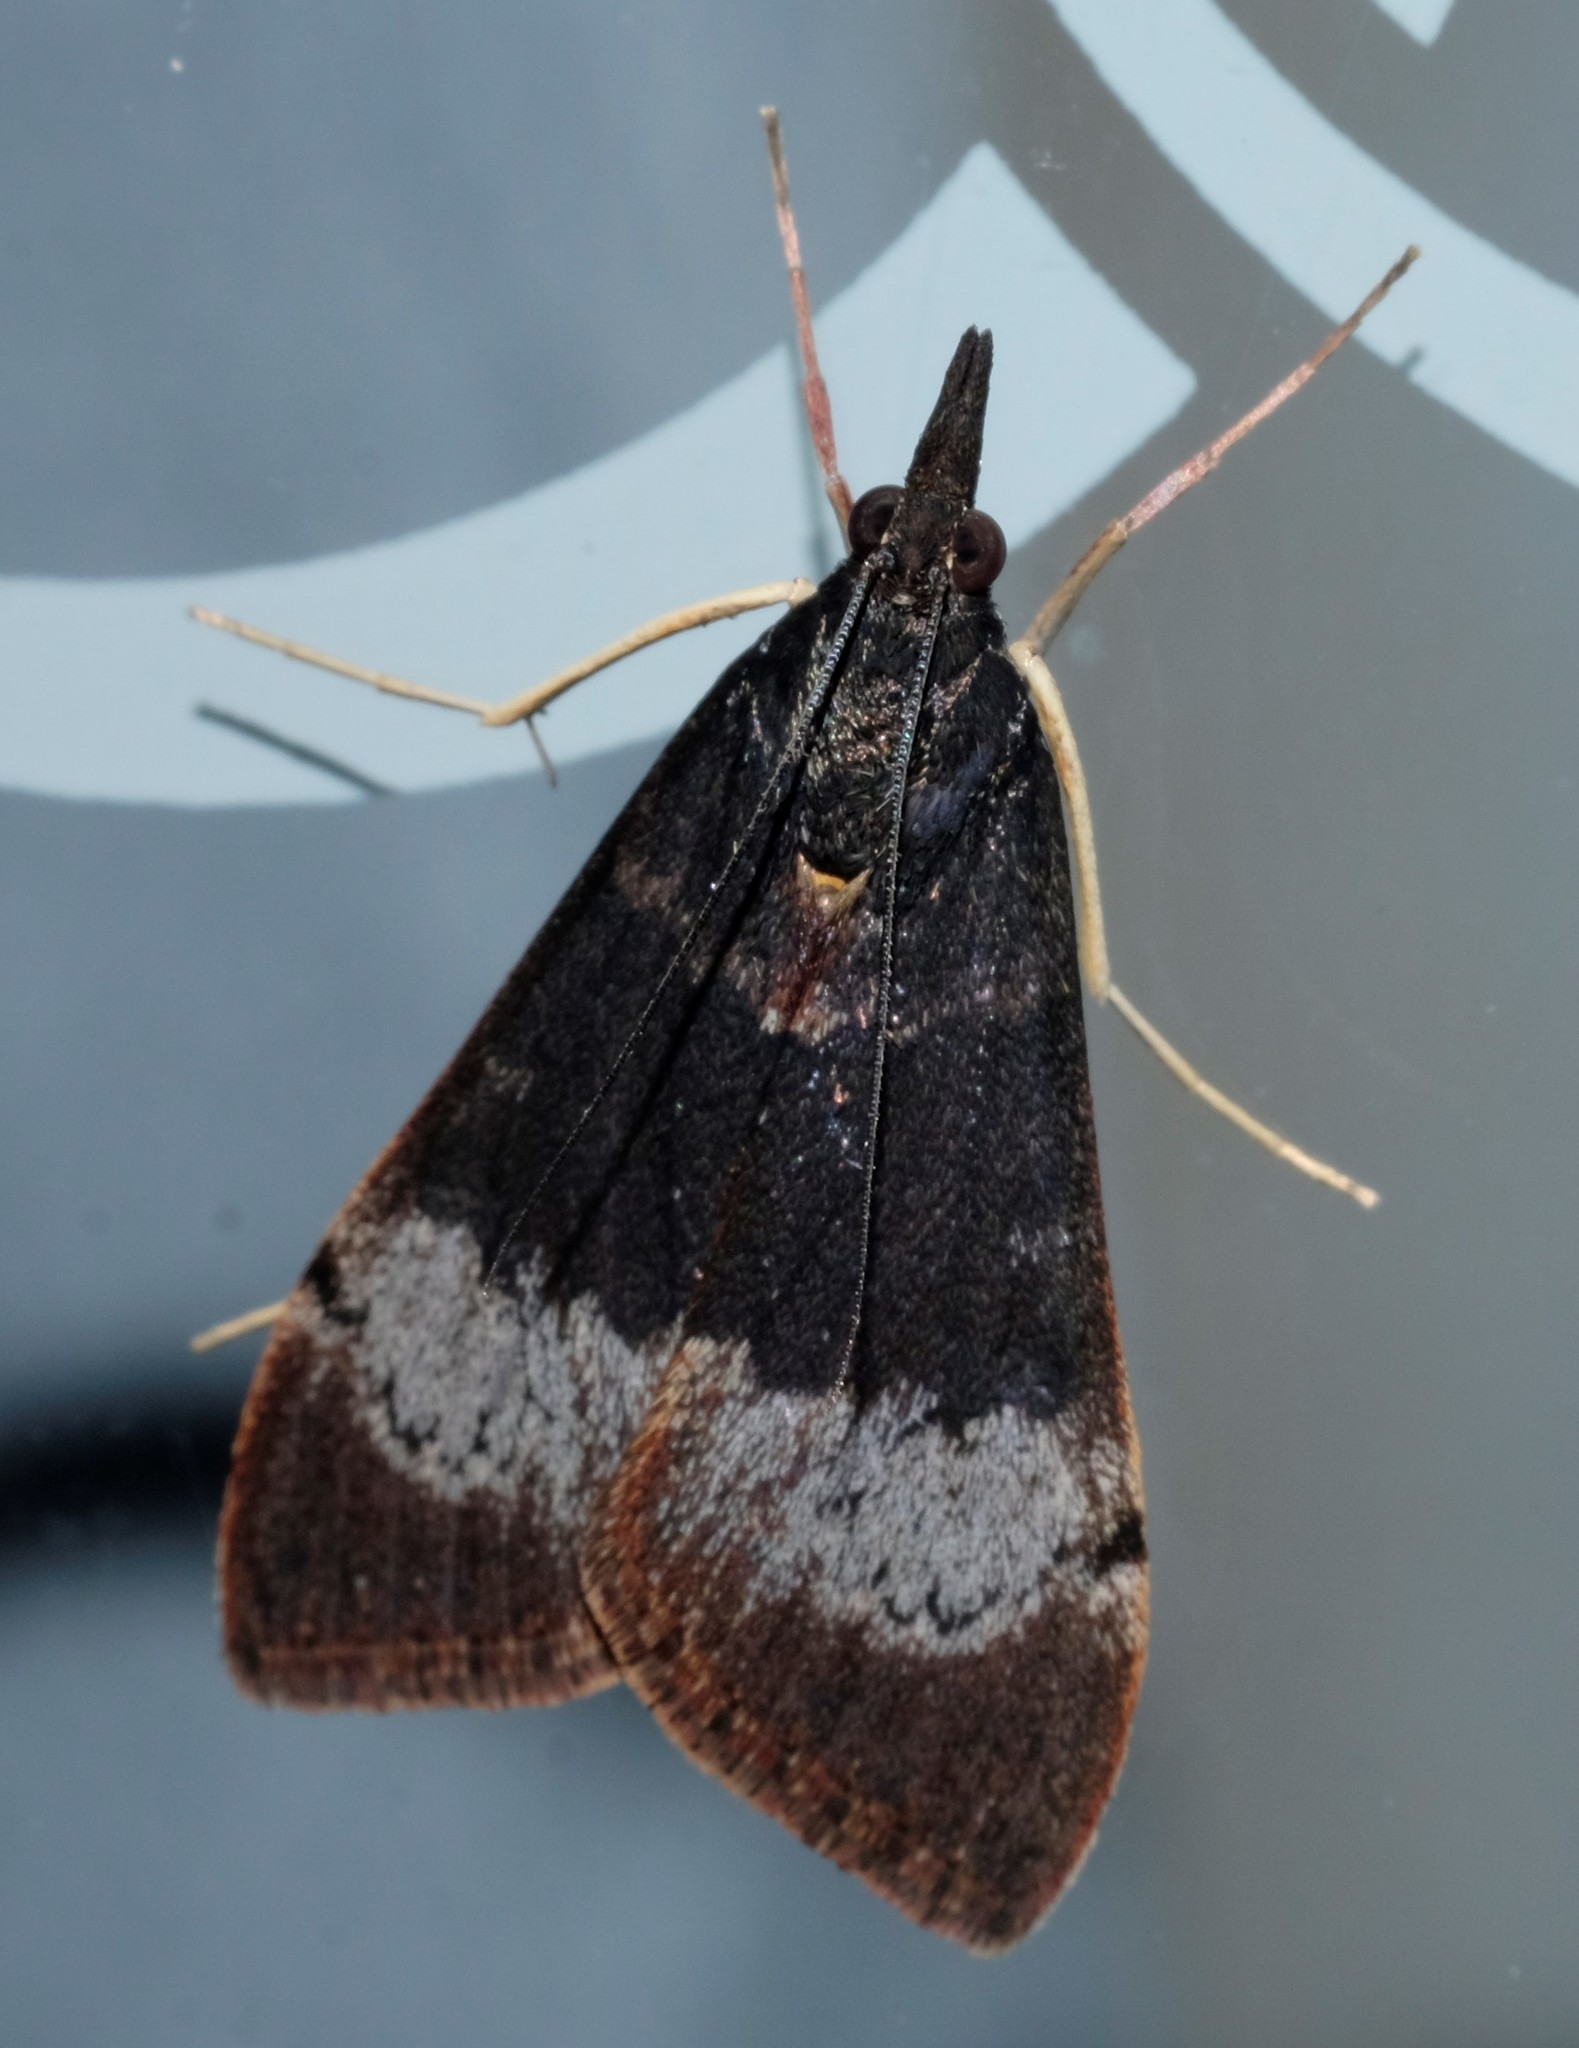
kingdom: Animalia
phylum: Arthropoda
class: Insecta
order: Lepidoptera
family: Crambidae
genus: Uresiphita
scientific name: Uresiphita ornithopteralis
